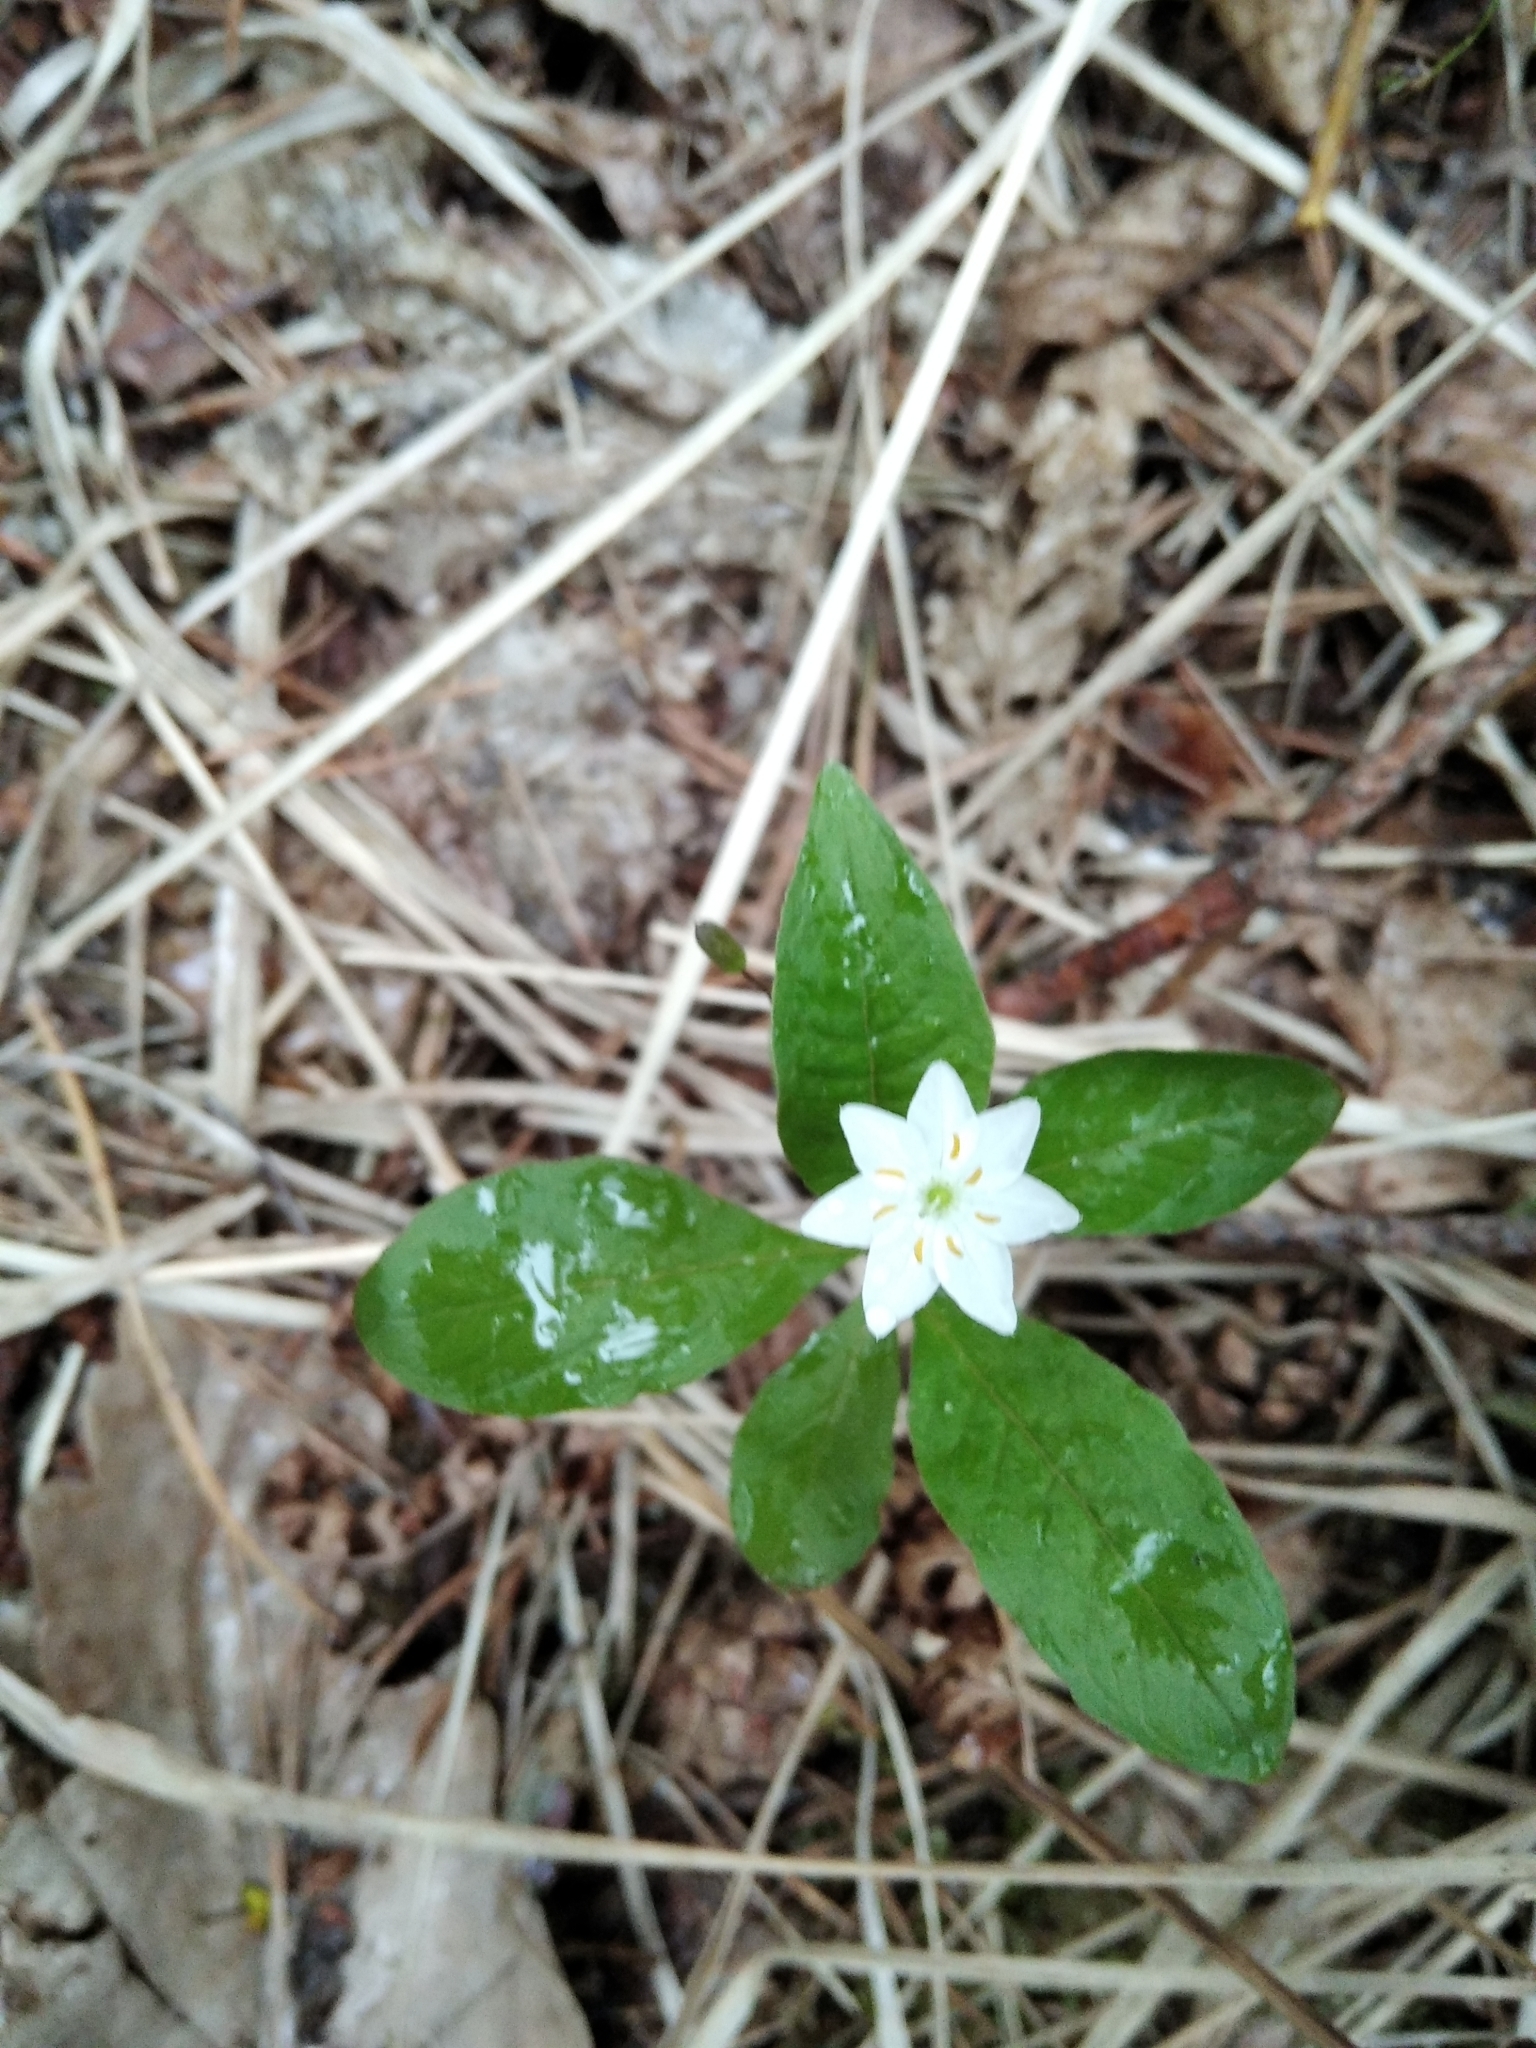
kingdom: Plantae
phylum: Tracheophyta
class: Magnoliopsida
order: Ericales
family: Primulaceae
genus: Lysimachia
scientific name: Lysimachia europaea
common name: Arctic starflower
